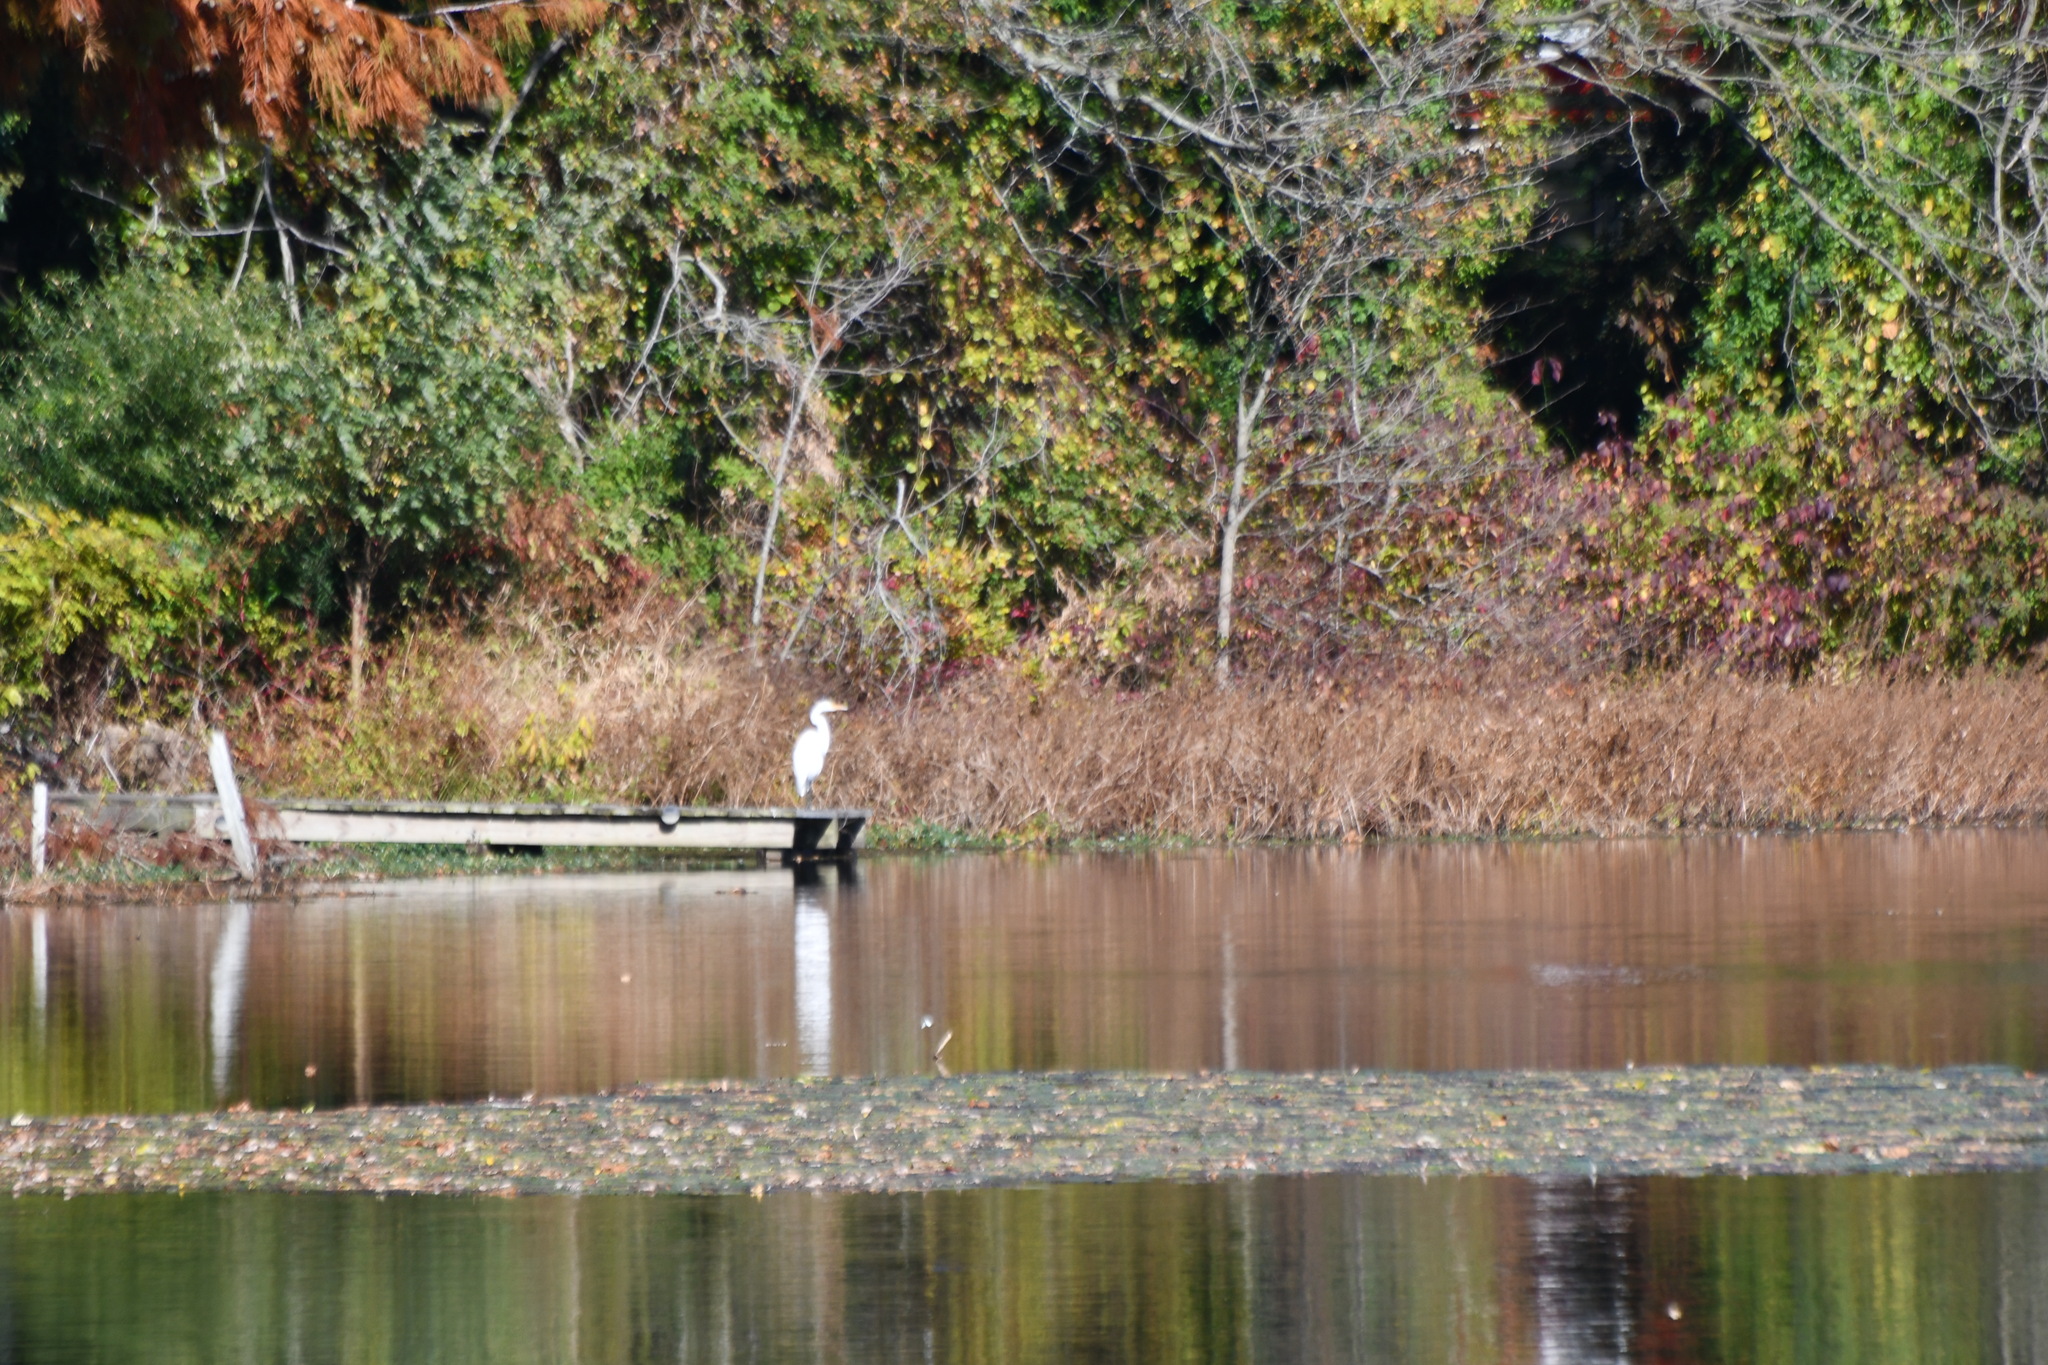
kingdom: Animalia
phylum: Chordata
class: Aves
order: Pelecaniformes
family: Ardeidae
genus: Ardea
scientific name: Ardea alba
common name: Great egret
